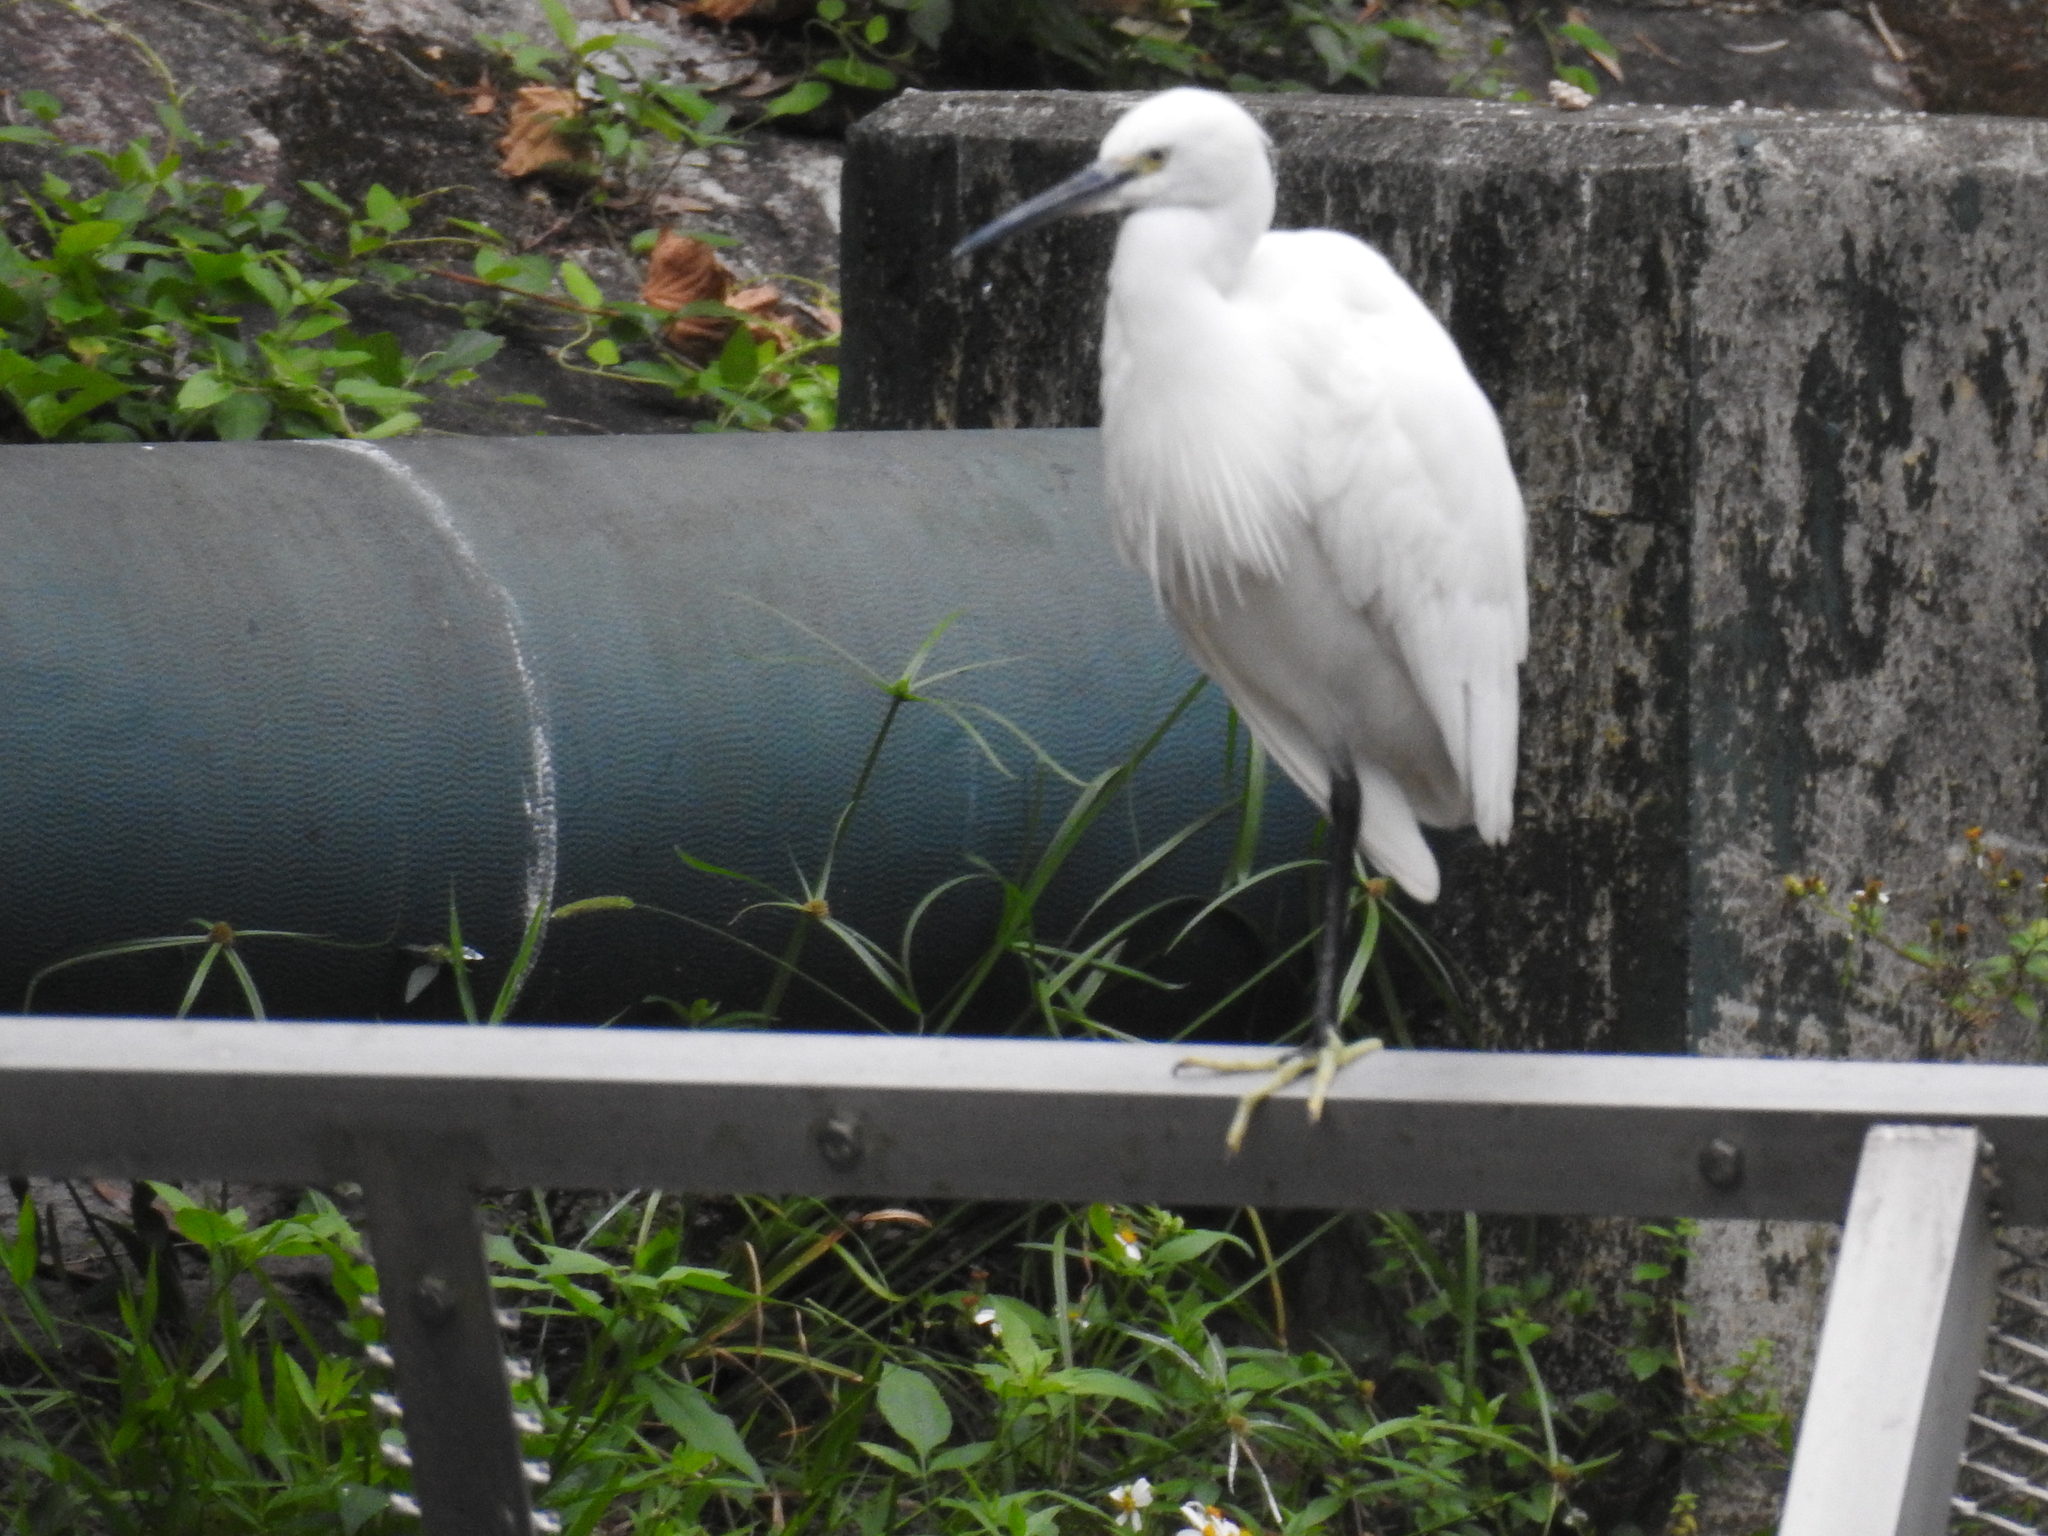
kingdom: Animalia
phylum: Chordata
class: Aves
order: Pelecaniformes
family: Ardeidae
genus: Egretta
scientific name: Egretta garzetta
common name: Little egret
